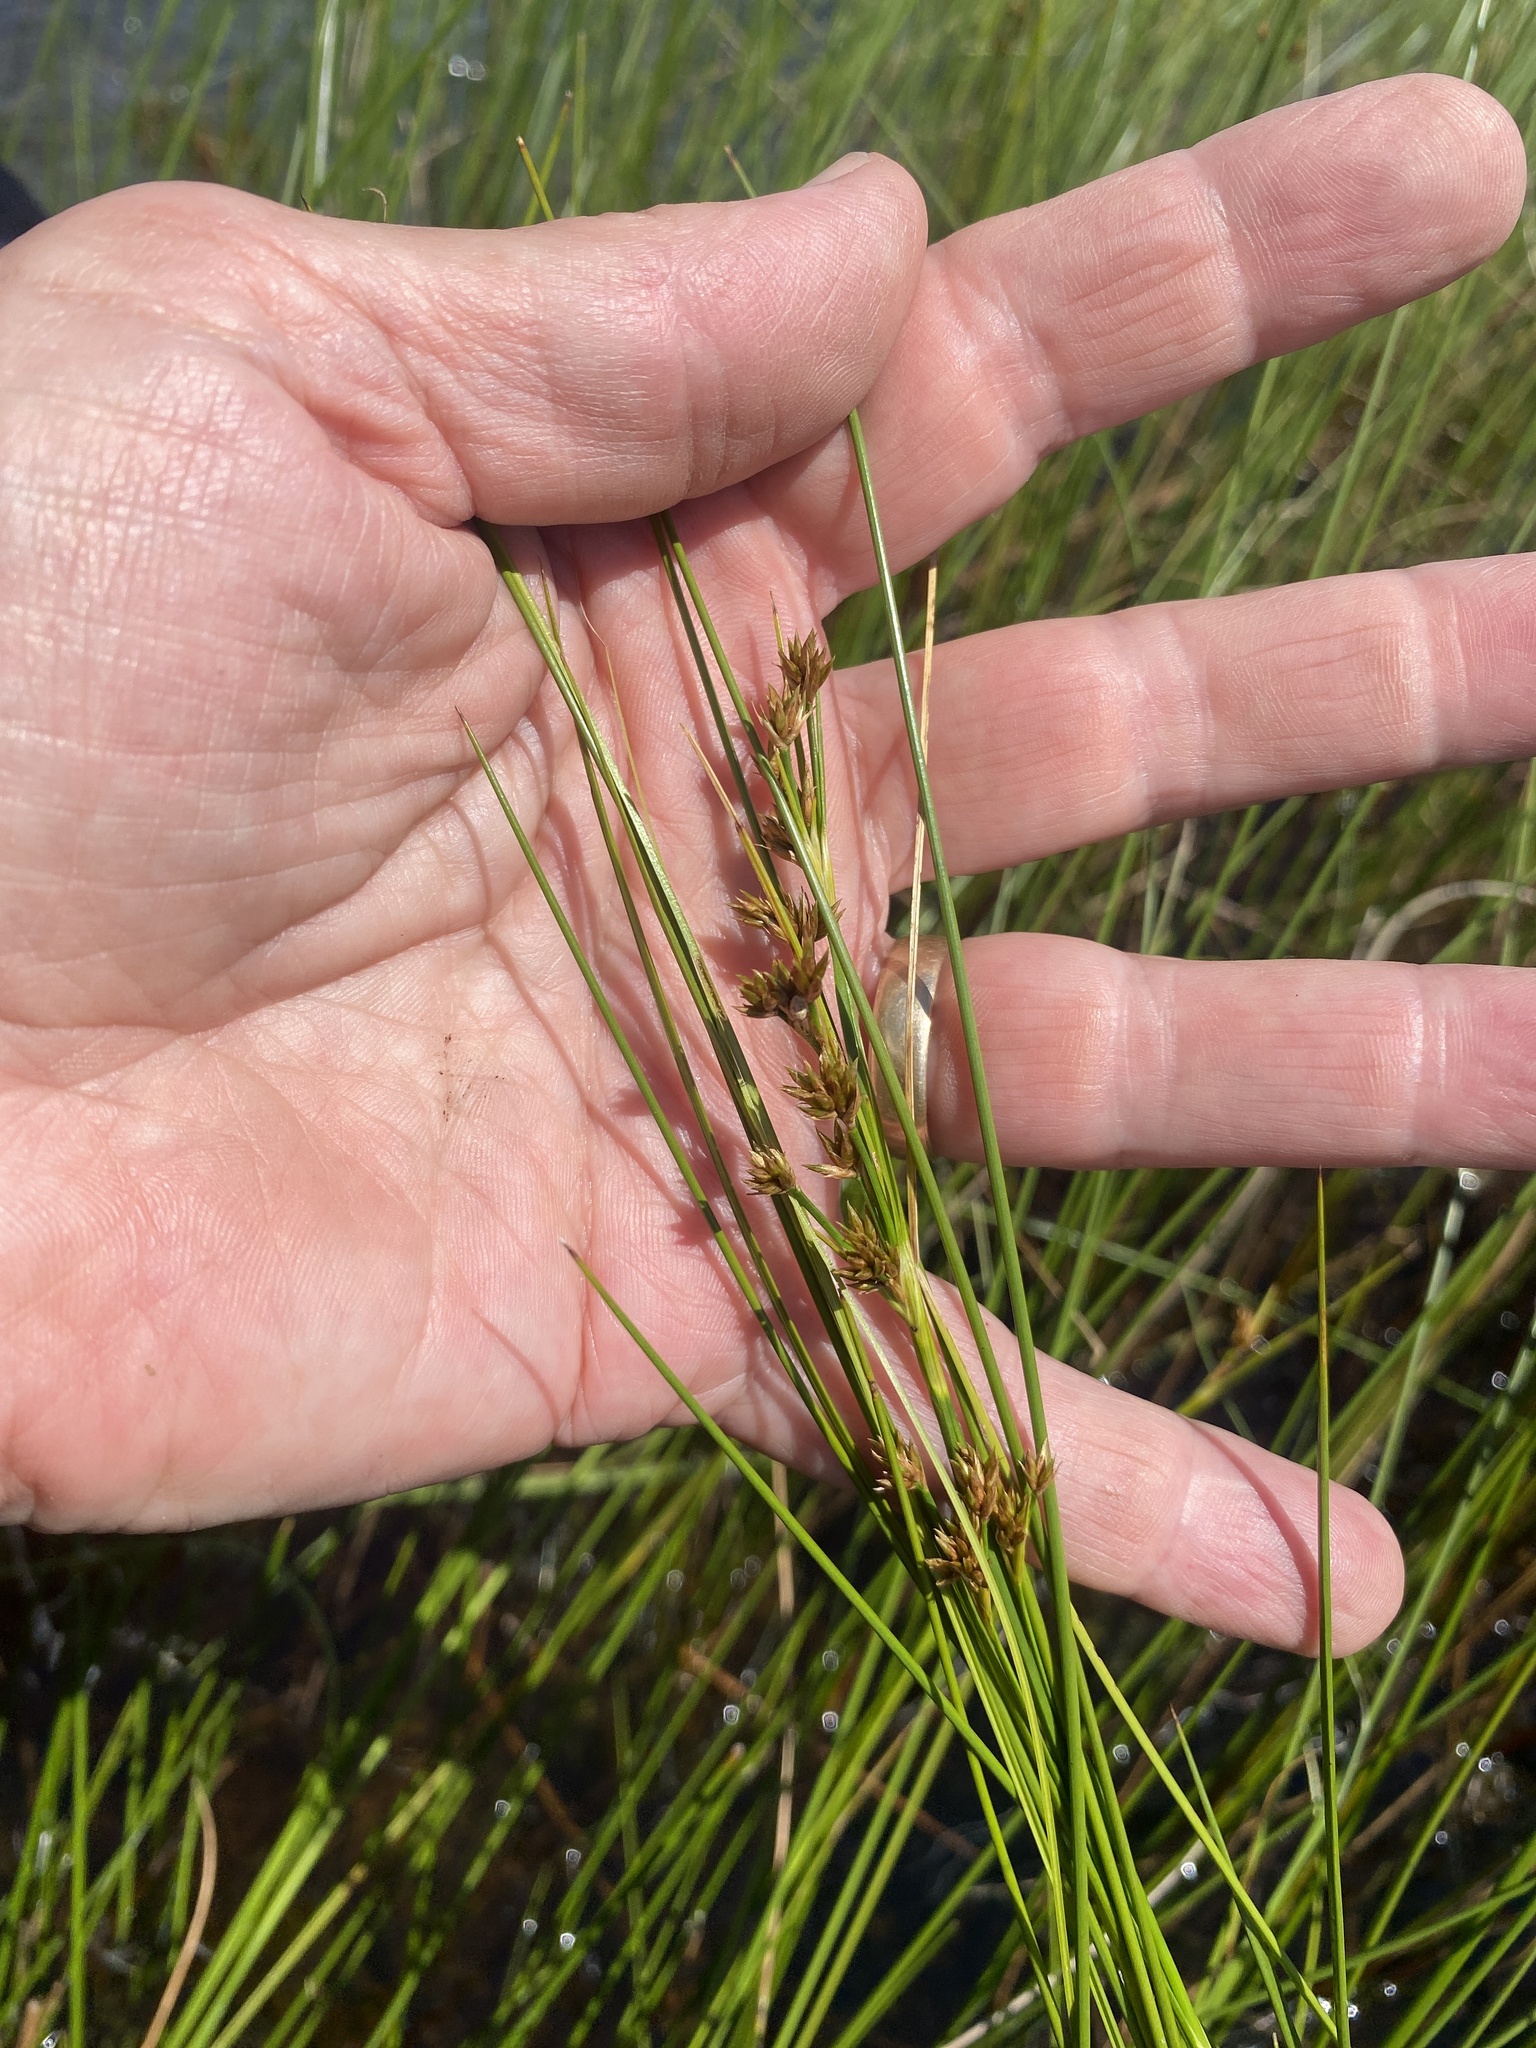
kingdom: Plantae
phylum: Tracheophyta
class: Liliopsida
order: Poales
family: Cyperaceae
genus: Cladium
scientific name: Cladium mariscoides
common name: Smooth sawgrass
